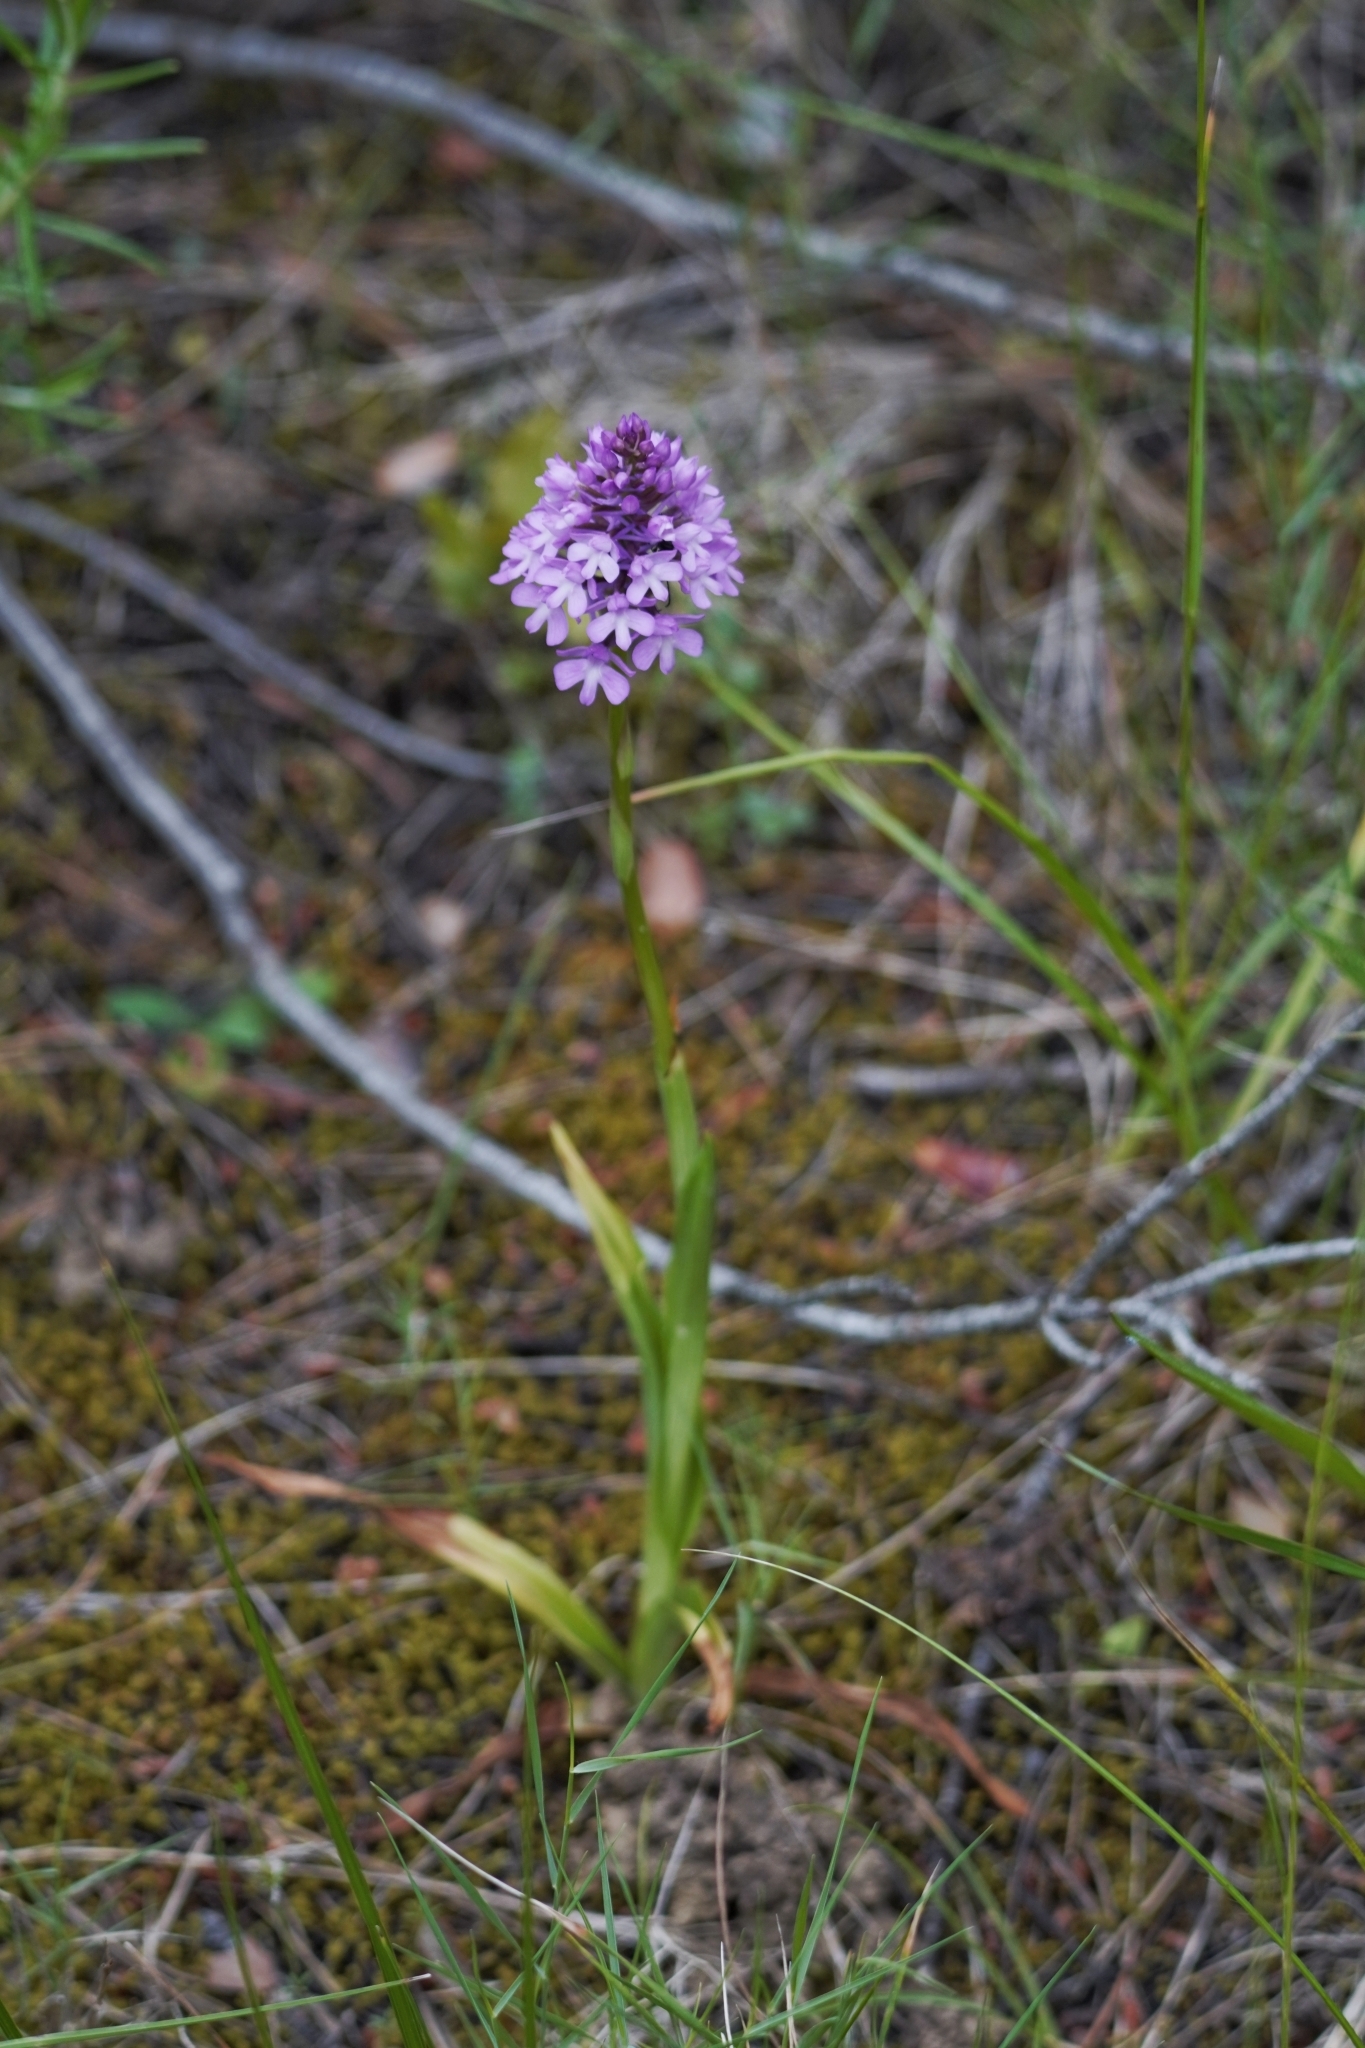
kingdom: Plantae
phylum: Tracheophyta
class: Liliopsida
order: Asparagales
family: Orchidaceae
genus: Anacamptis
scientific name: Anacamptis pyramidalis
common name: Pyramidal orchid
